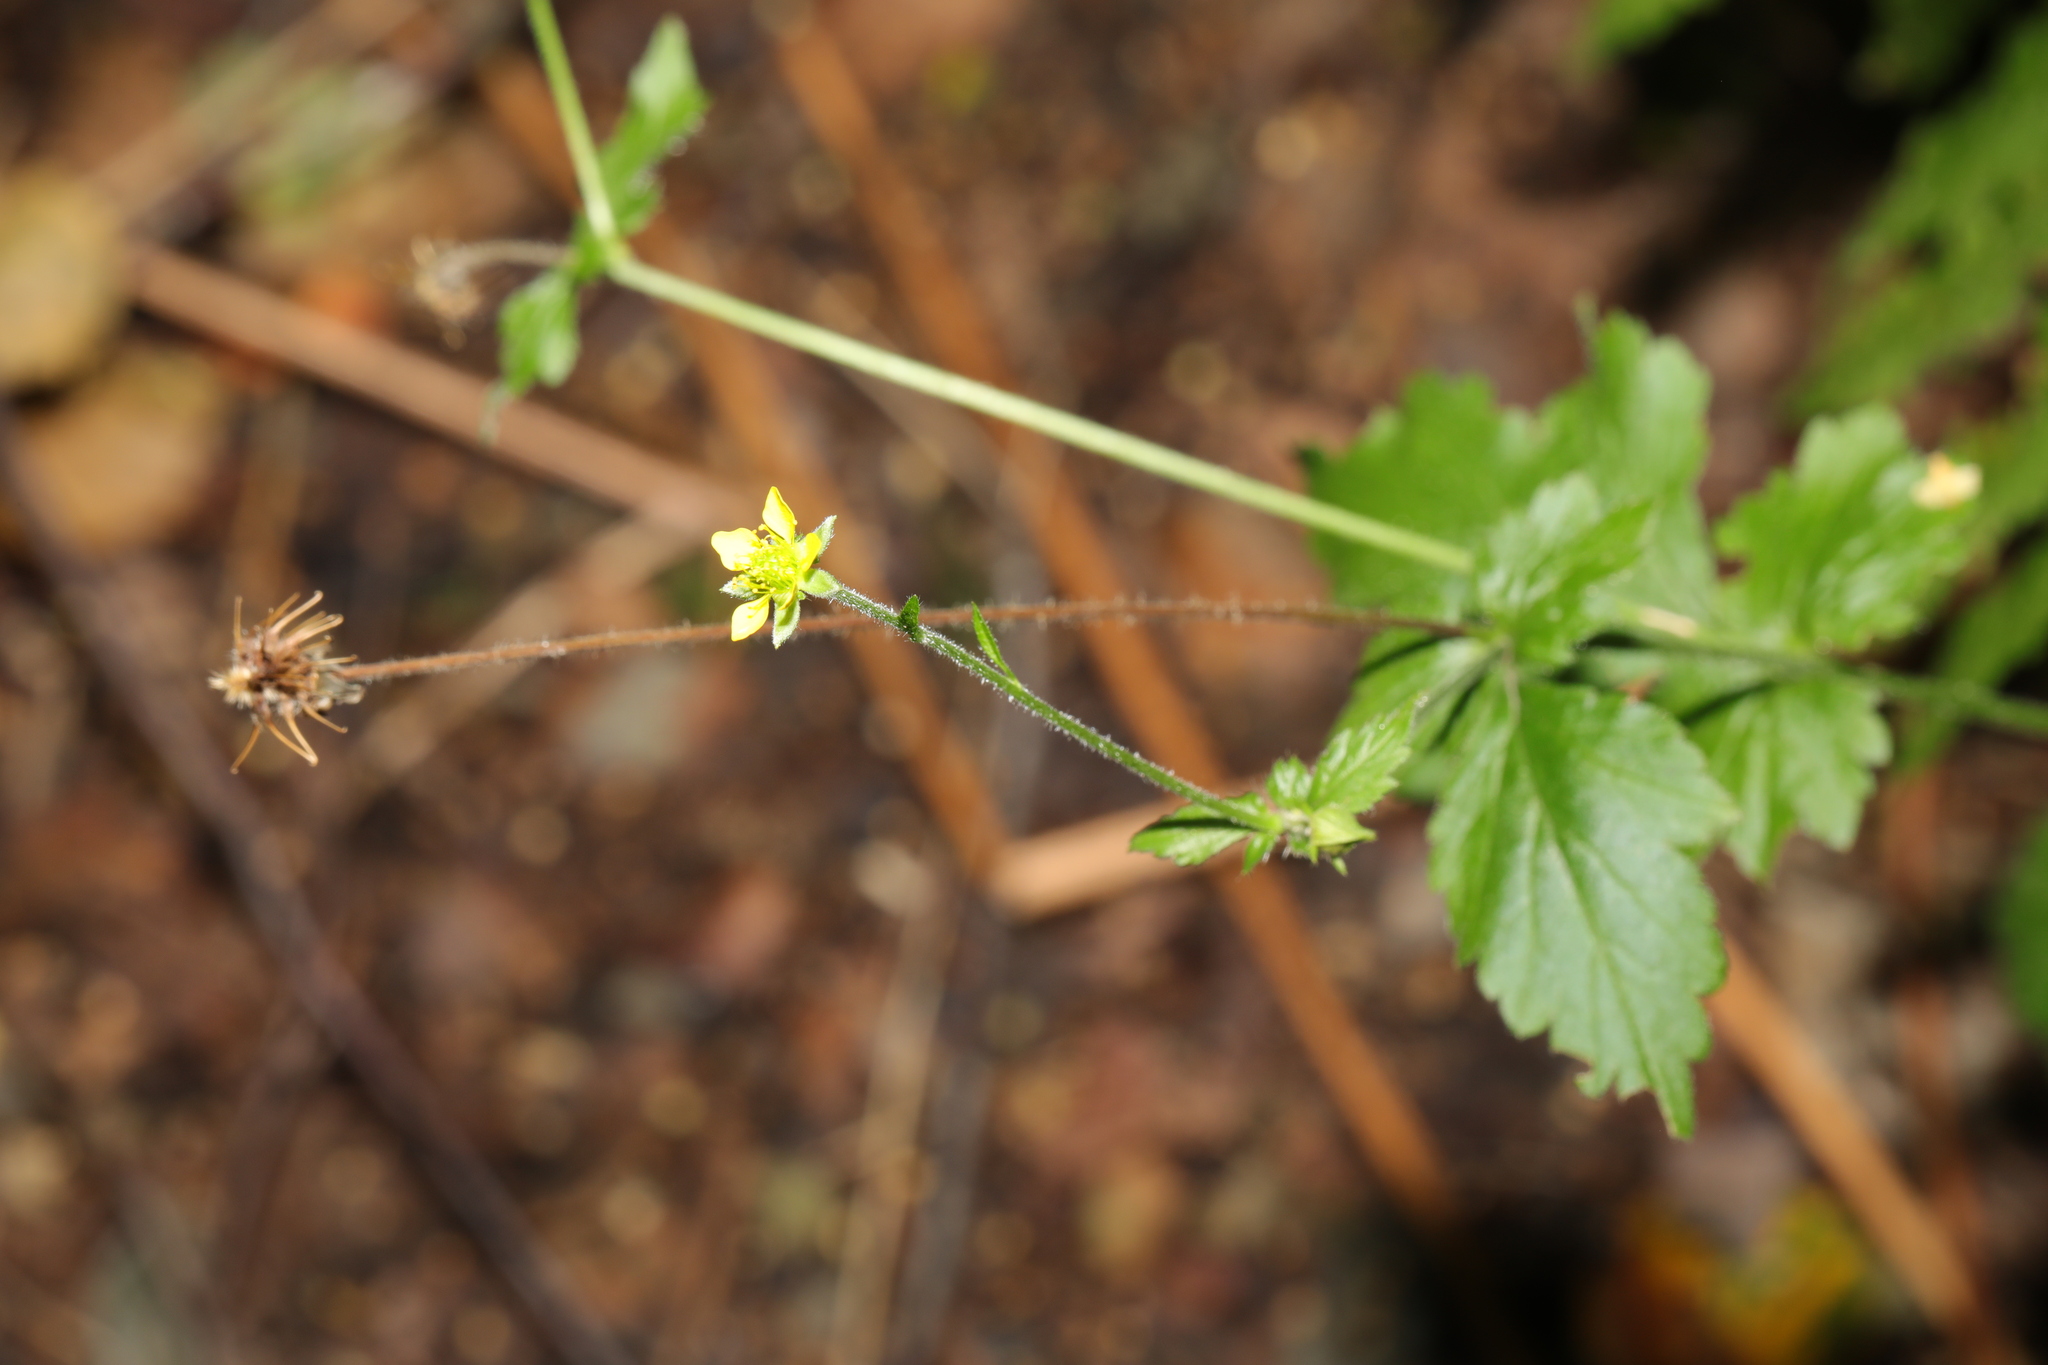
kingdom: Plantae
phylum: Tracheophyta
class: Magnoliopsida
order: Rosales
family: Rosaceae
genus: Geum
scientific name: Geum urbanum
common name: Wood avens
